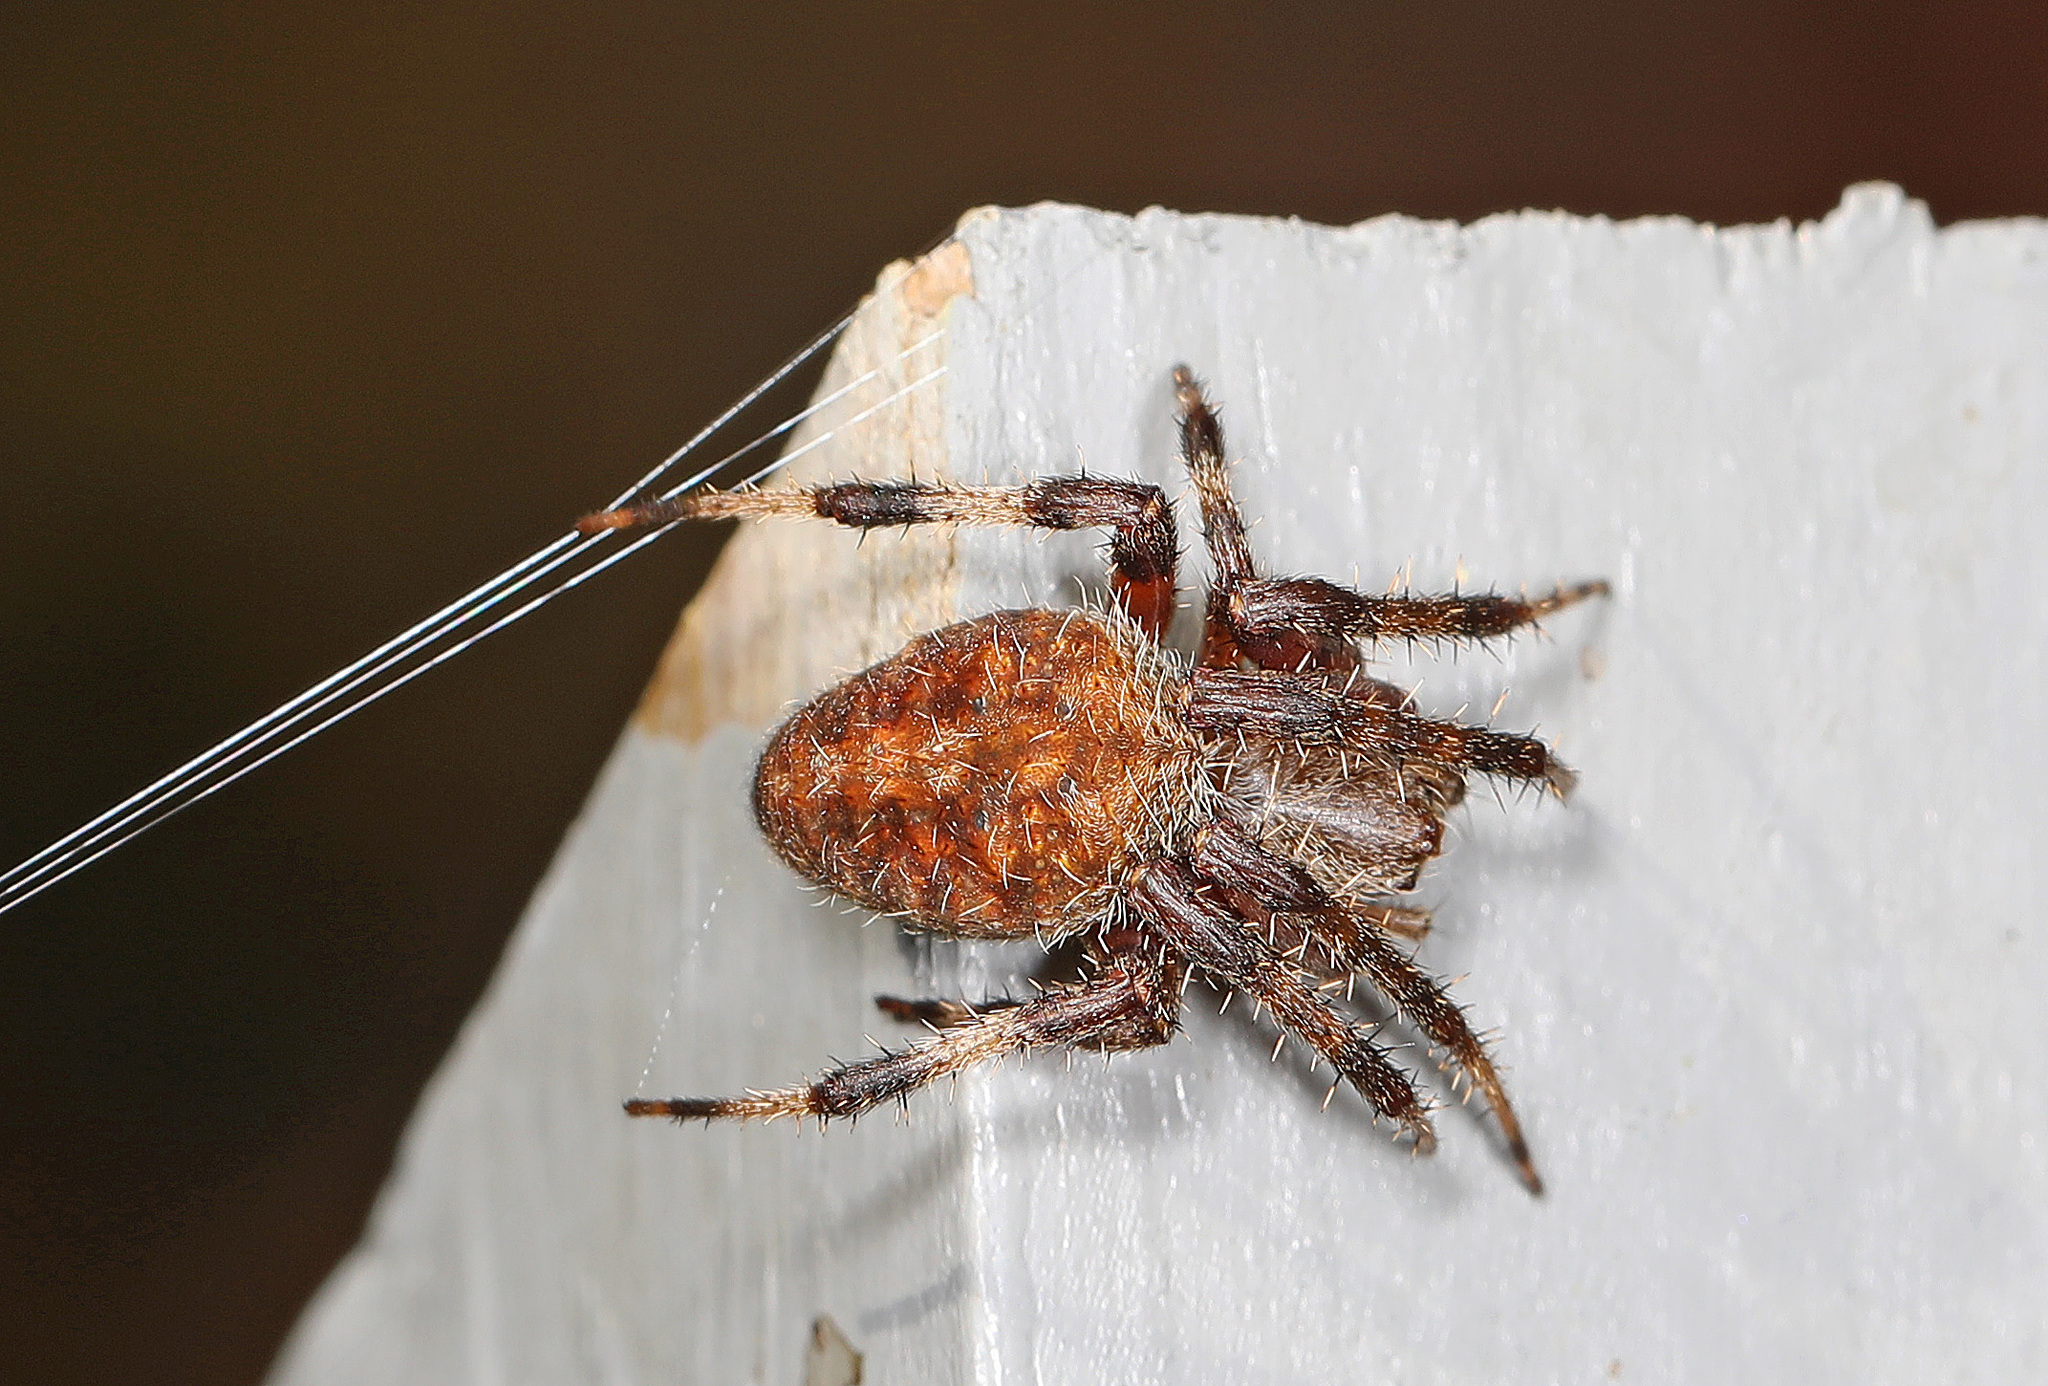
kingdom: Animalia
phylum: Arthropoda
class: Arachnida
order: Araneae
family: Araneidae
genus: Neoscona
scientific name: Neoscona crucifera
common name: Spotted orbweaver
